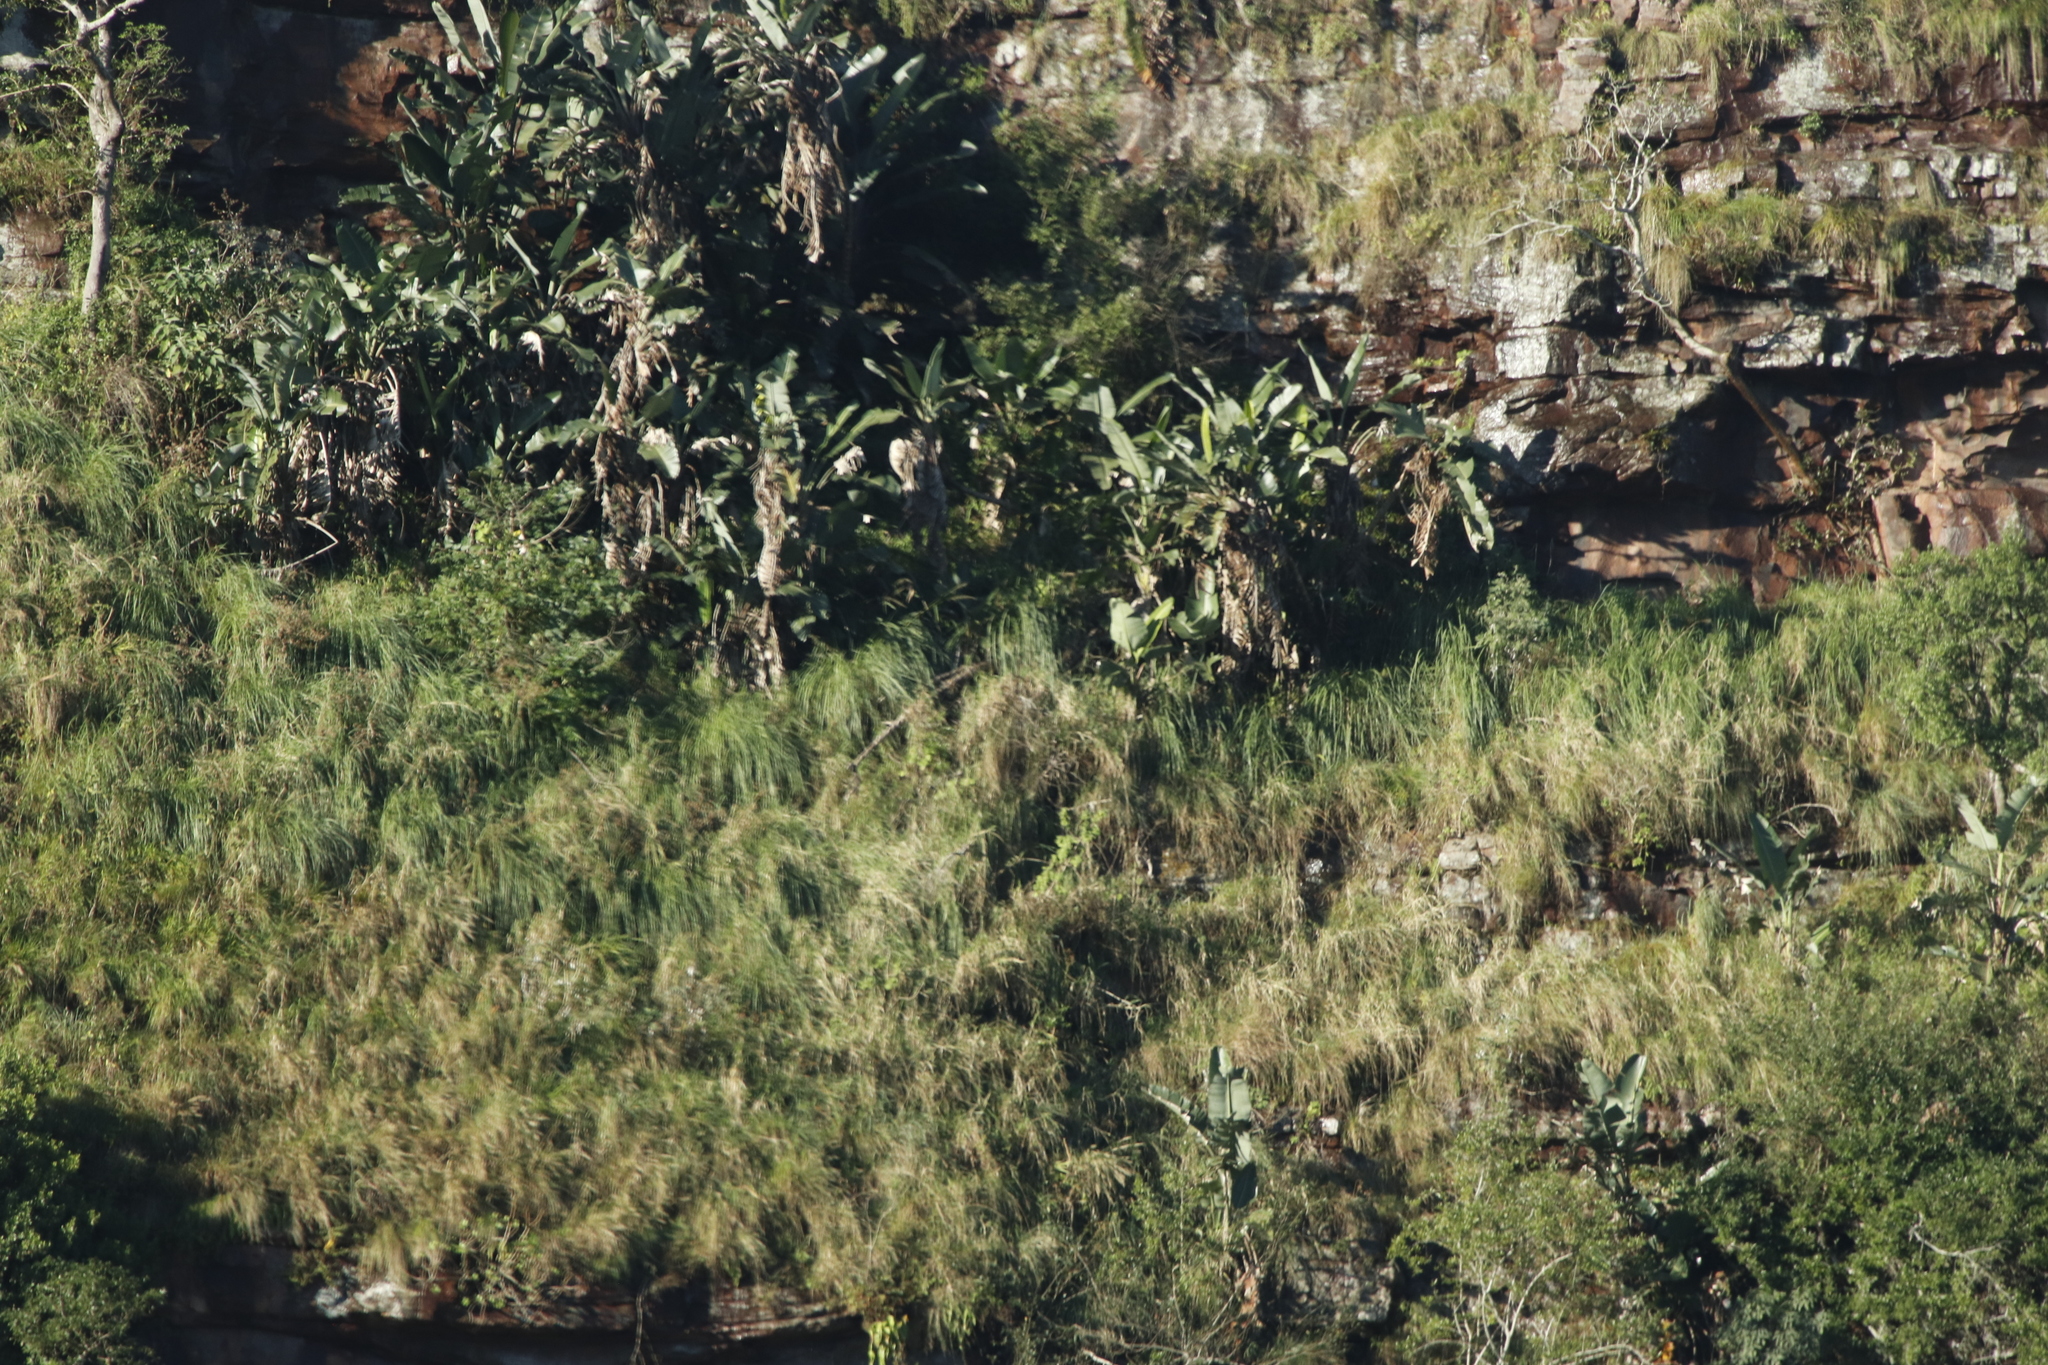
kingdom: Plantae
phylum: Tracheophyta
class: Liliopsida
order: Zingiberales
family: Strelitziaceae
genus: Strelitzia
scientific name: Strelitzia nicolai
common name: Bird-of-paradise tree
